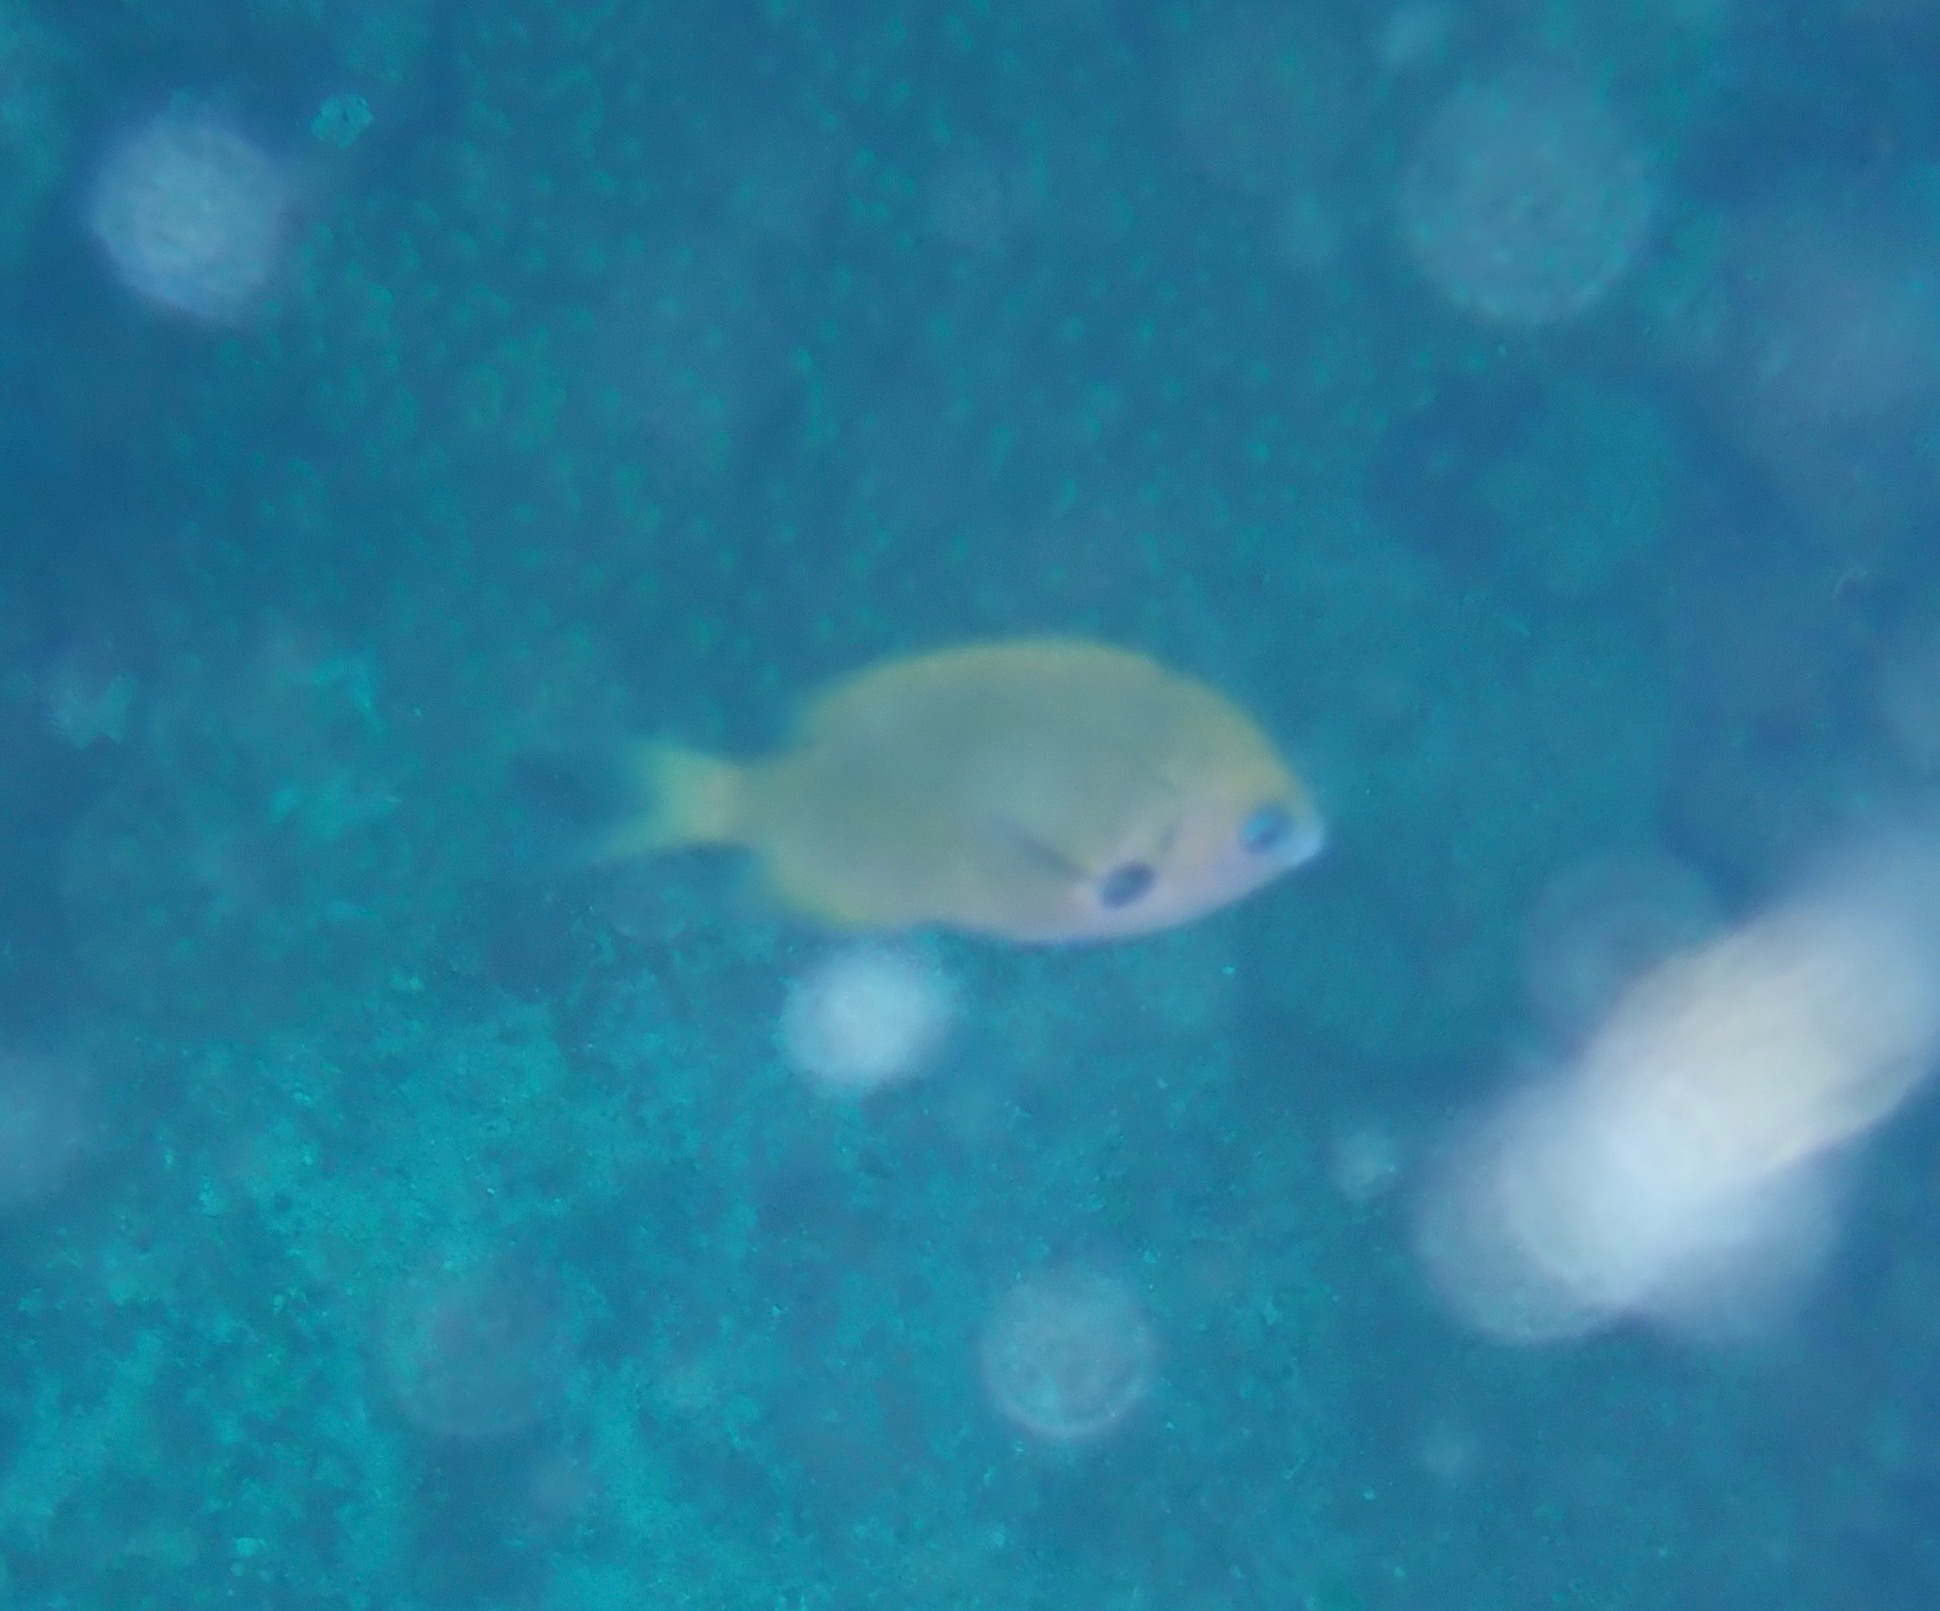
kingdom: Animalia
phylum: Chordata
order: Perciformes
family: Pomacentridae
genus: Pycnochromis
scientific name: Pycnochromis pacifica
